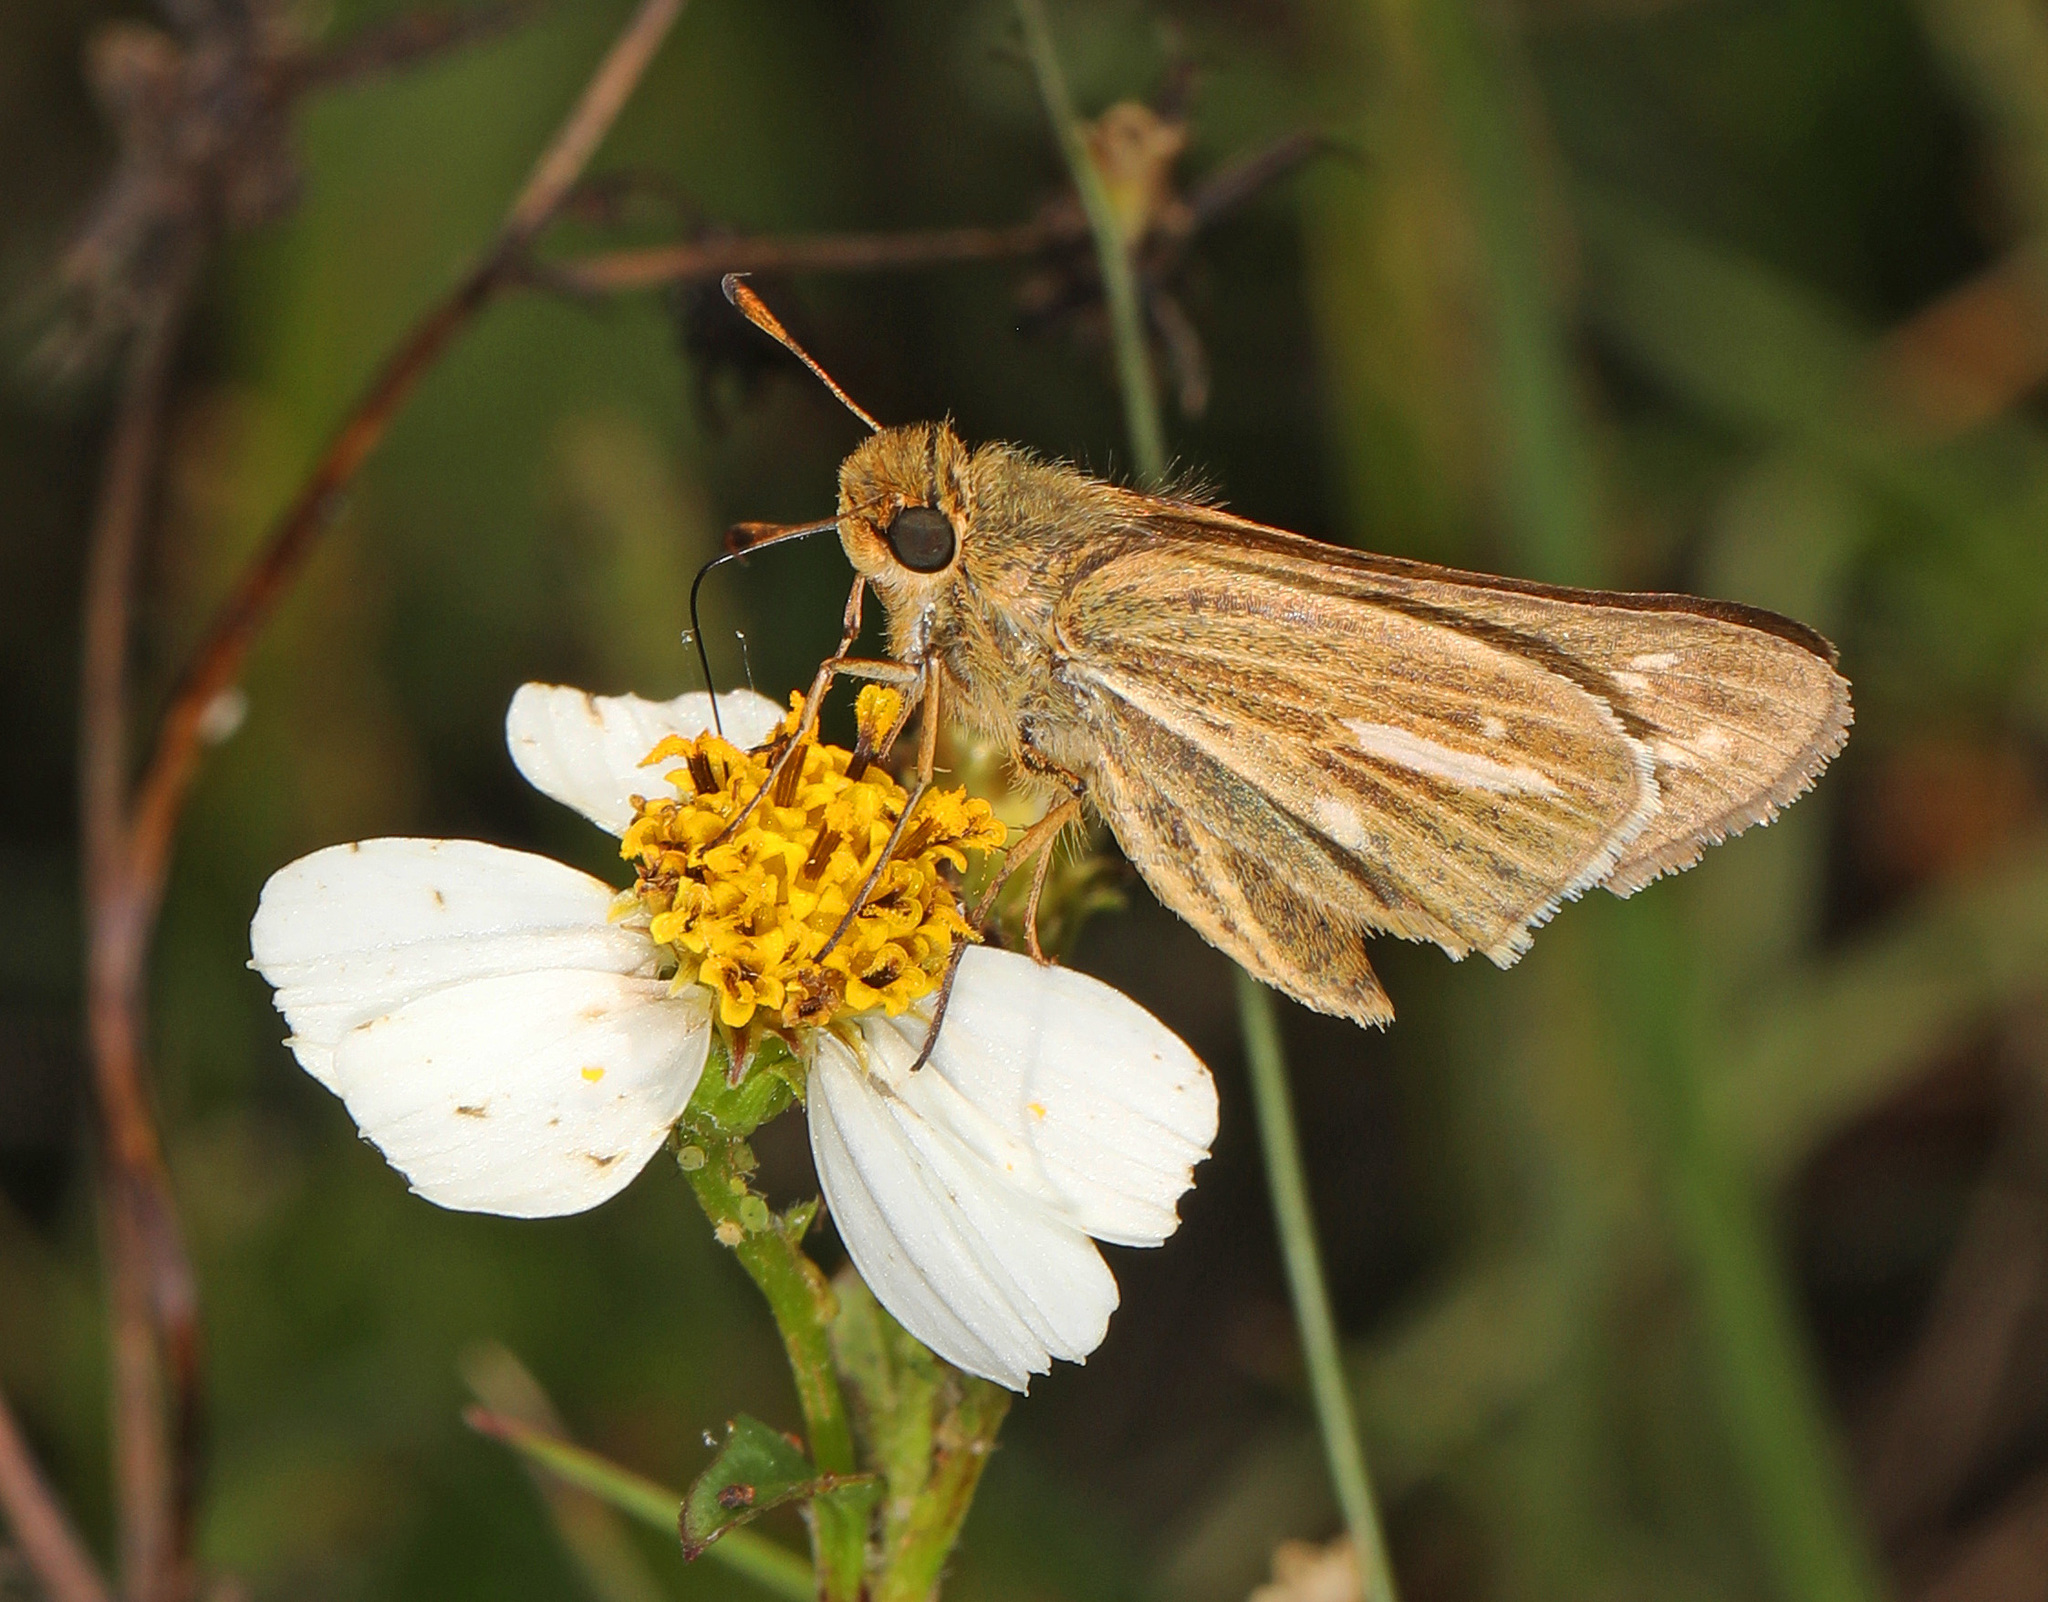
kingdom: Animalia
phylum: Arthropoda
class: Insecta
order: Lepidoptera
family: Hesperiidae
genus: Panoquina
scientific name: Panoquina panoquin
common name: Salt marsh skipper
